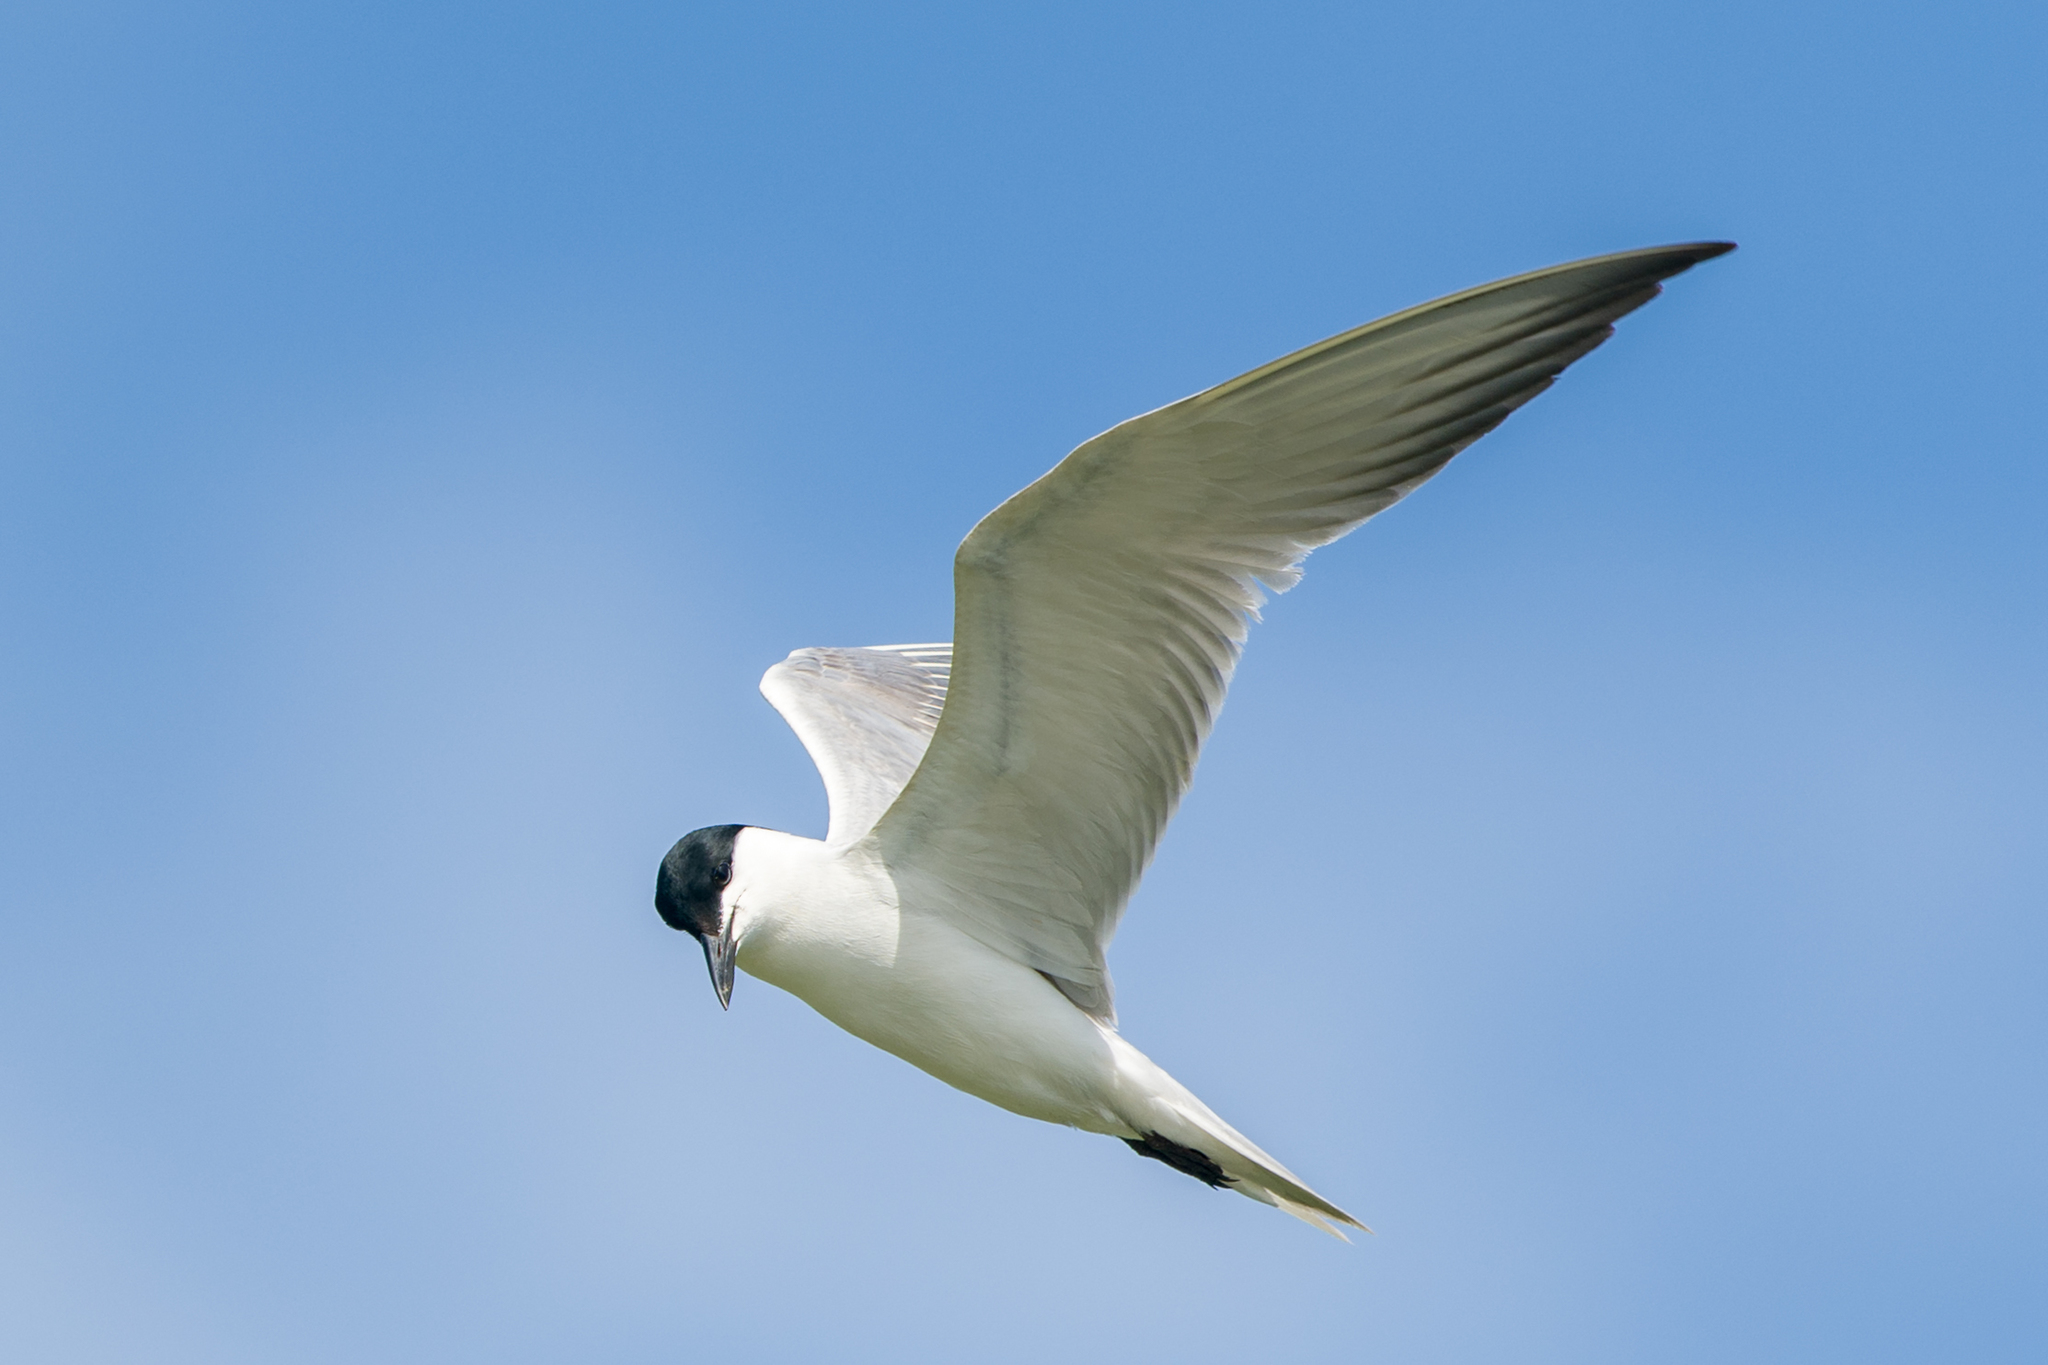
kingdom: Animalia
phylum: Chordata
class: Aves
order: Charadriiformes
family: Laridae
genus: Gelochelidon
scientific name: Gelochelidon nilotica
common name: Gull-billed tern
